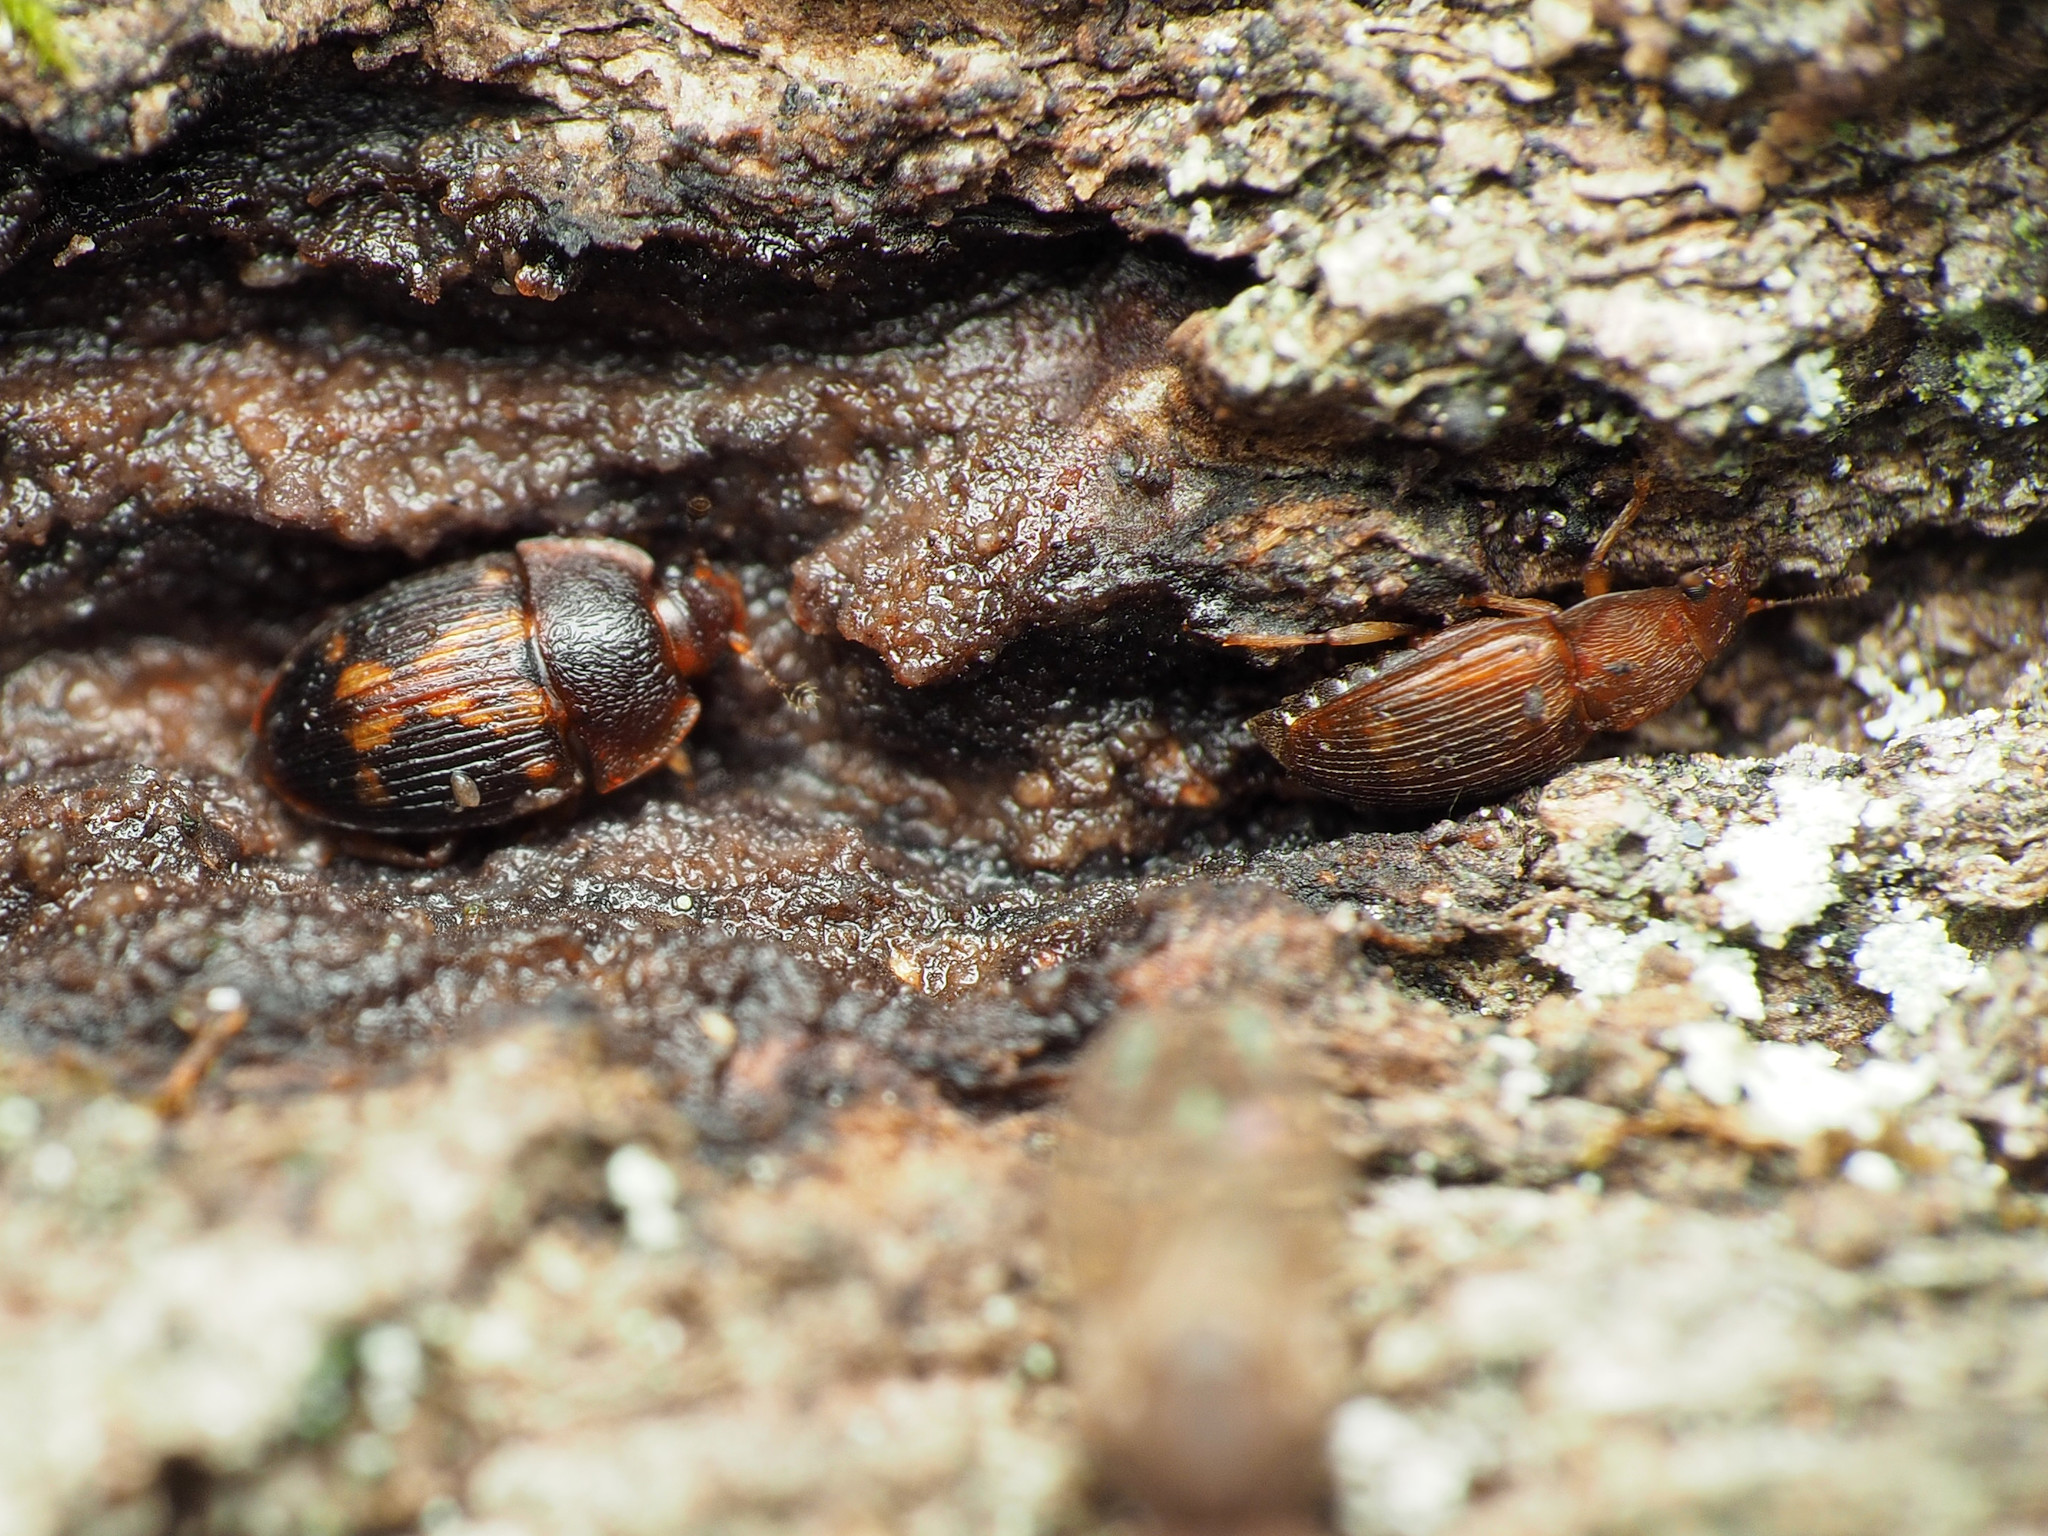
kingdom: Animalia
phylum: Arthropoda
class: Insecta
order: Coleoptera
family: Nitidulidae
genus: Stelidota
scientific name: Stelidota geminata
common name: Strawberry sap beetle
